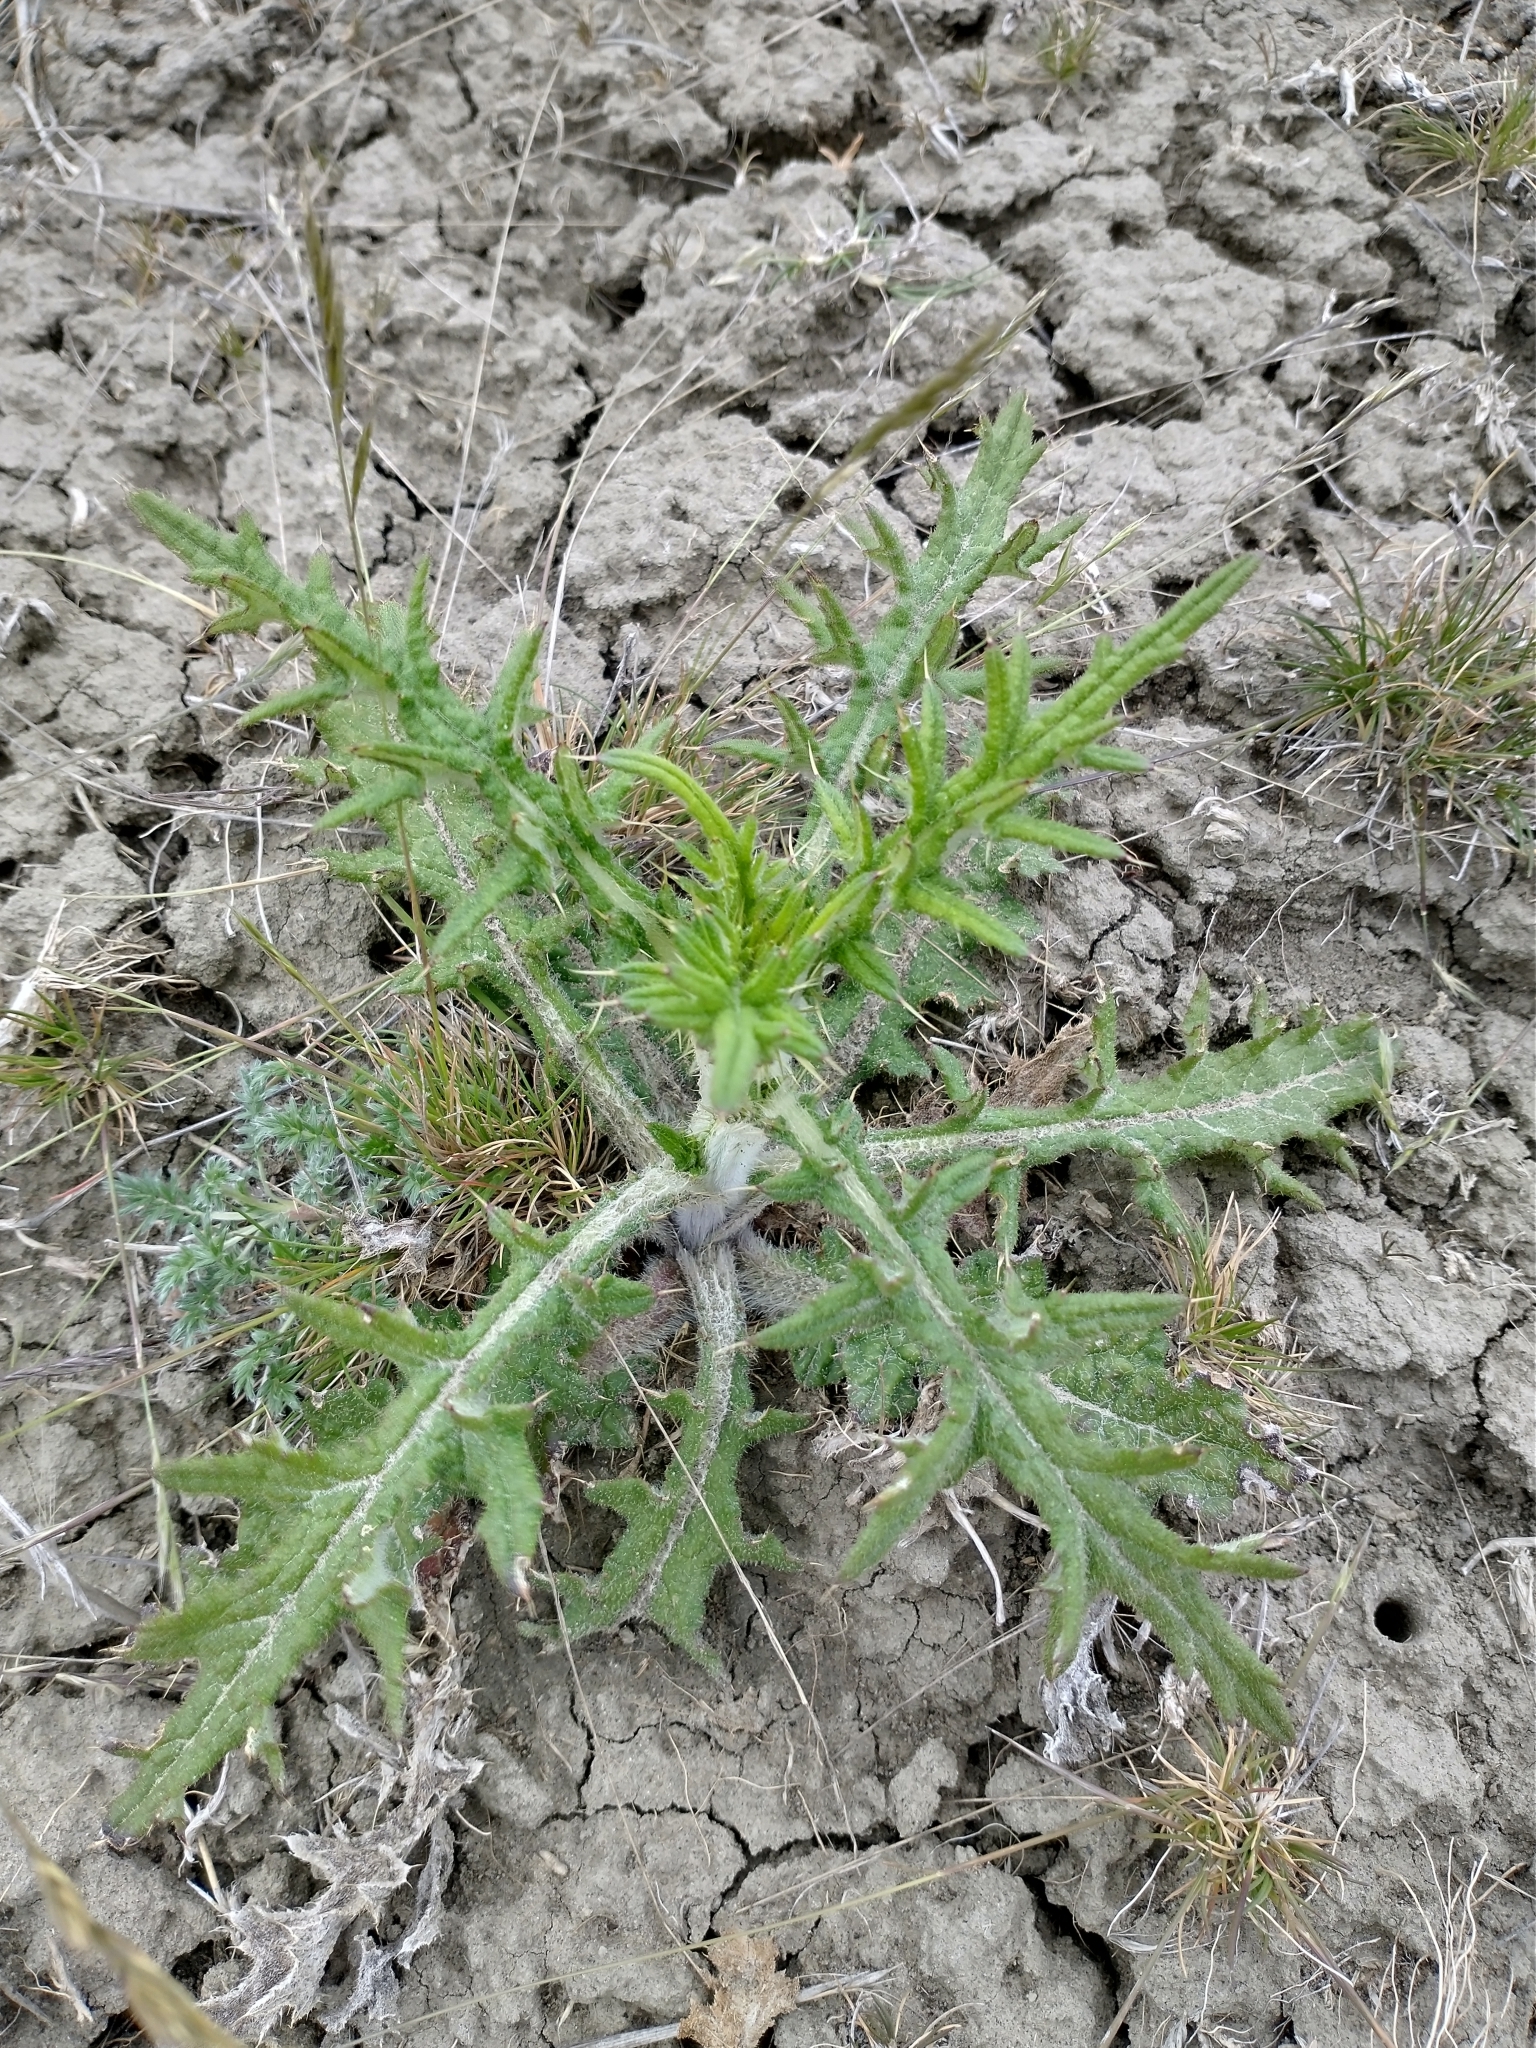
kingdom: Plantae
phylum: Tracheophyta
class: Magnoliopsida
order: Asterales
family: Asteraceae
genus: Cirsium
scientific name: Cirsium vulgare
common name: Bull thistle
